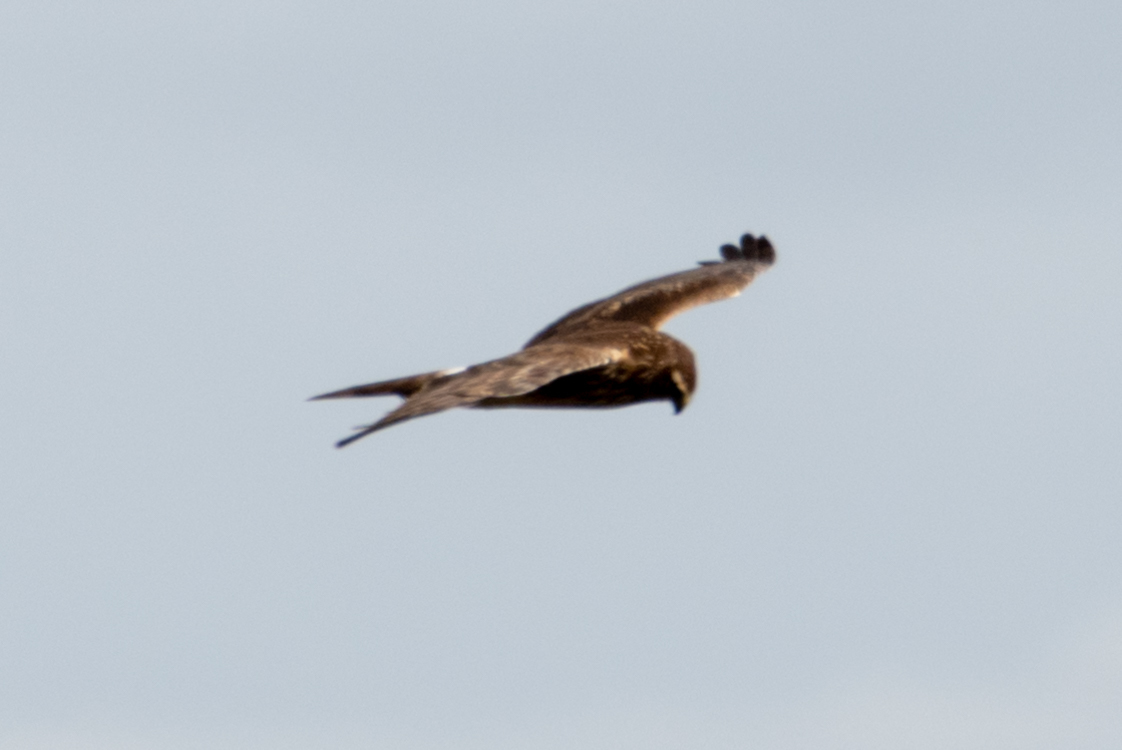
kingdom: Animalia
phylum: Chordata
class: Aves
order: Accipitriformes
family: Accipitridae
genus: Circus
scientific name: Circus cyaneus
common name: Hen harrier
